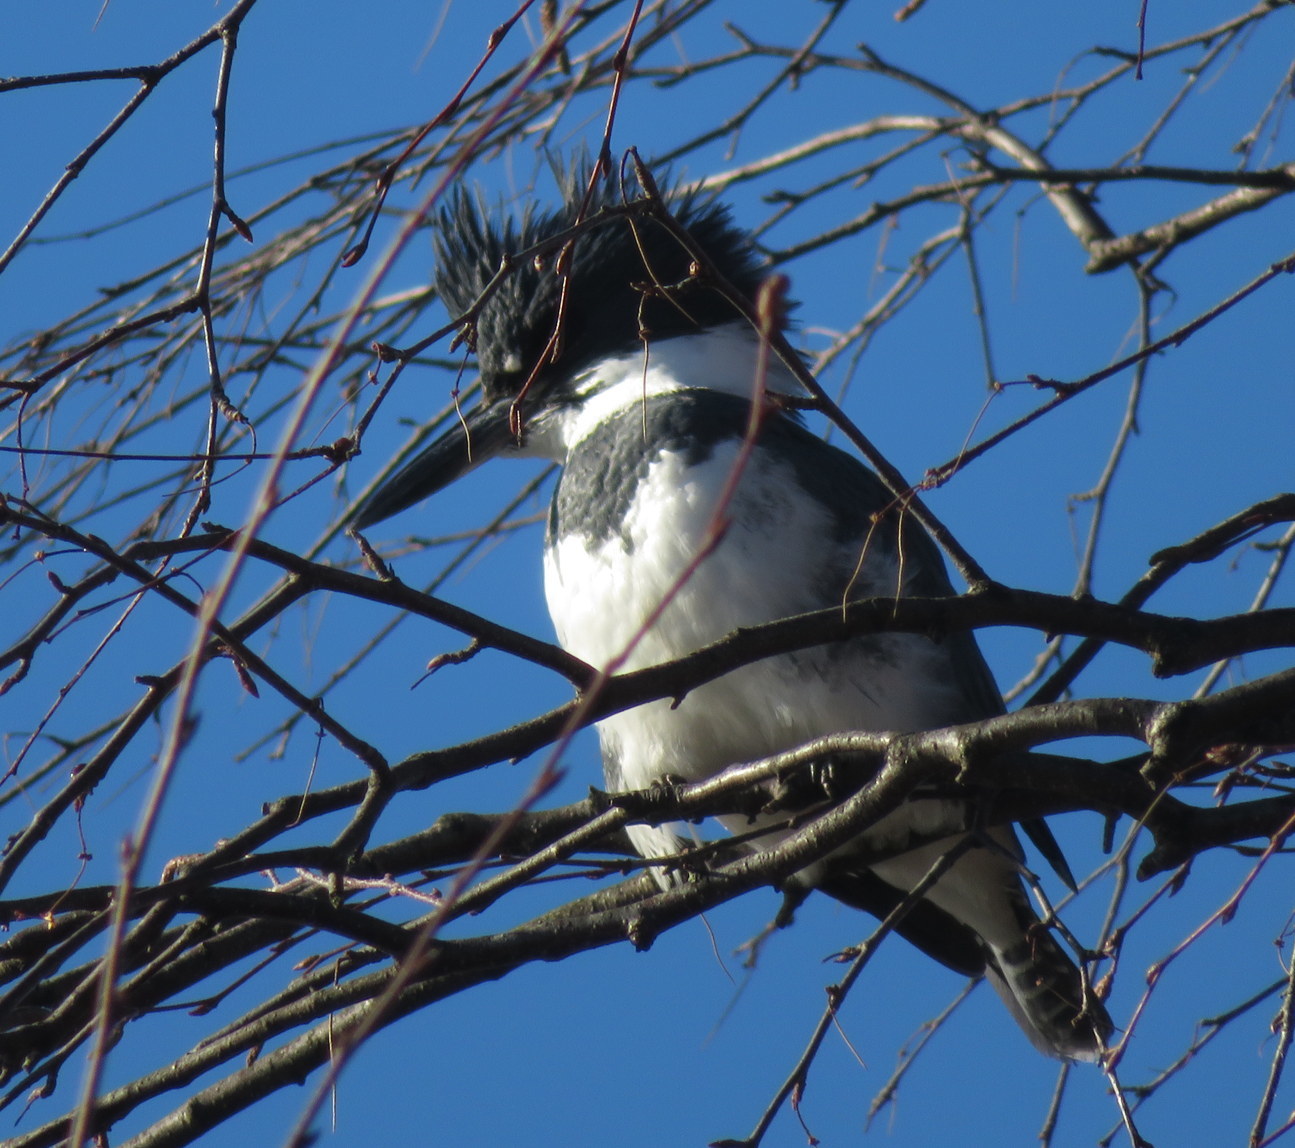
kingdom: Animalia
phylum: Chordata
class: Aves
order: Coraciiformes
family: Alcedinidae
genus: Megaceryle
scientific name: Megaceryle alcyon
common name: Belted kingfisher
